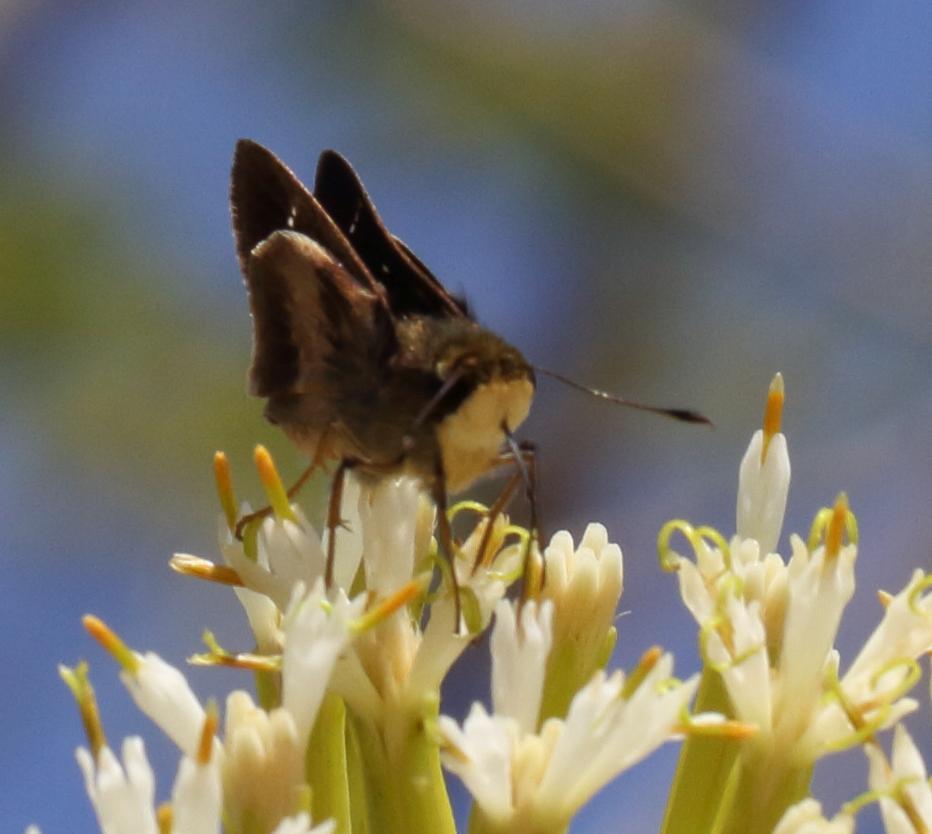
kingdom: Animalia
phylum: Arthropoda
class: Insecta
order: Lepidoptera
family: Hesperiidae
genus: Platylesches
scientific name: Platylesches moritili
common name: Honey hopper
